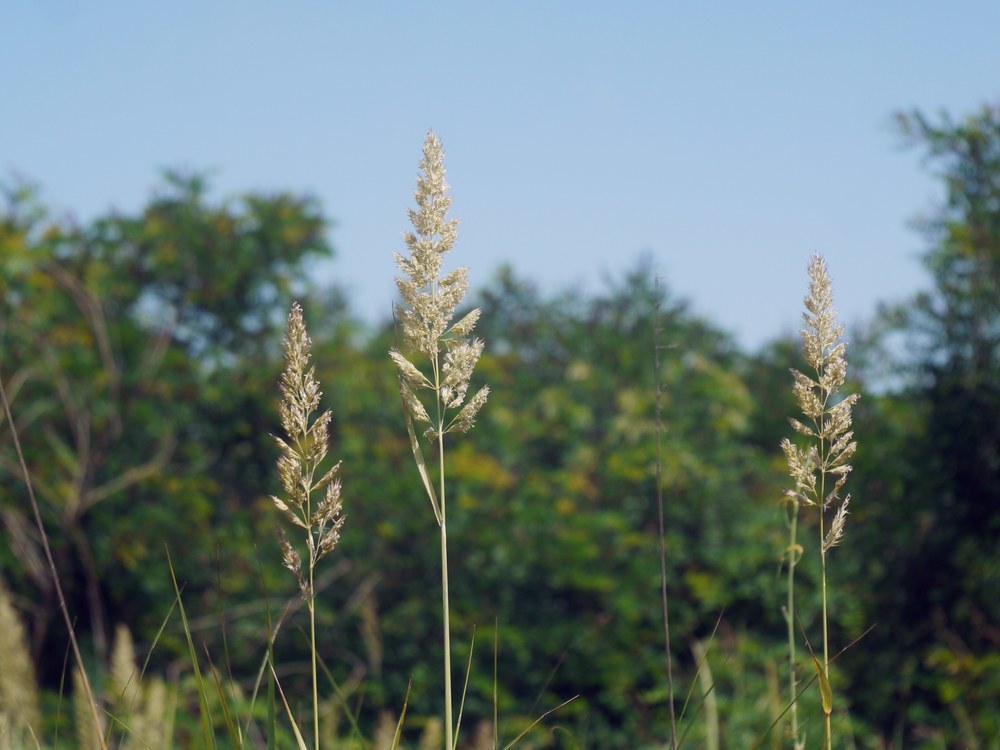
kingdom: Plantae
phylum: Tracheophyta
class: Liliopsida
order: Poales
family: Poaceae
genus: Calamagrostis
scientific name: Calamagrostis epigejos
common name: Wood small-reed
